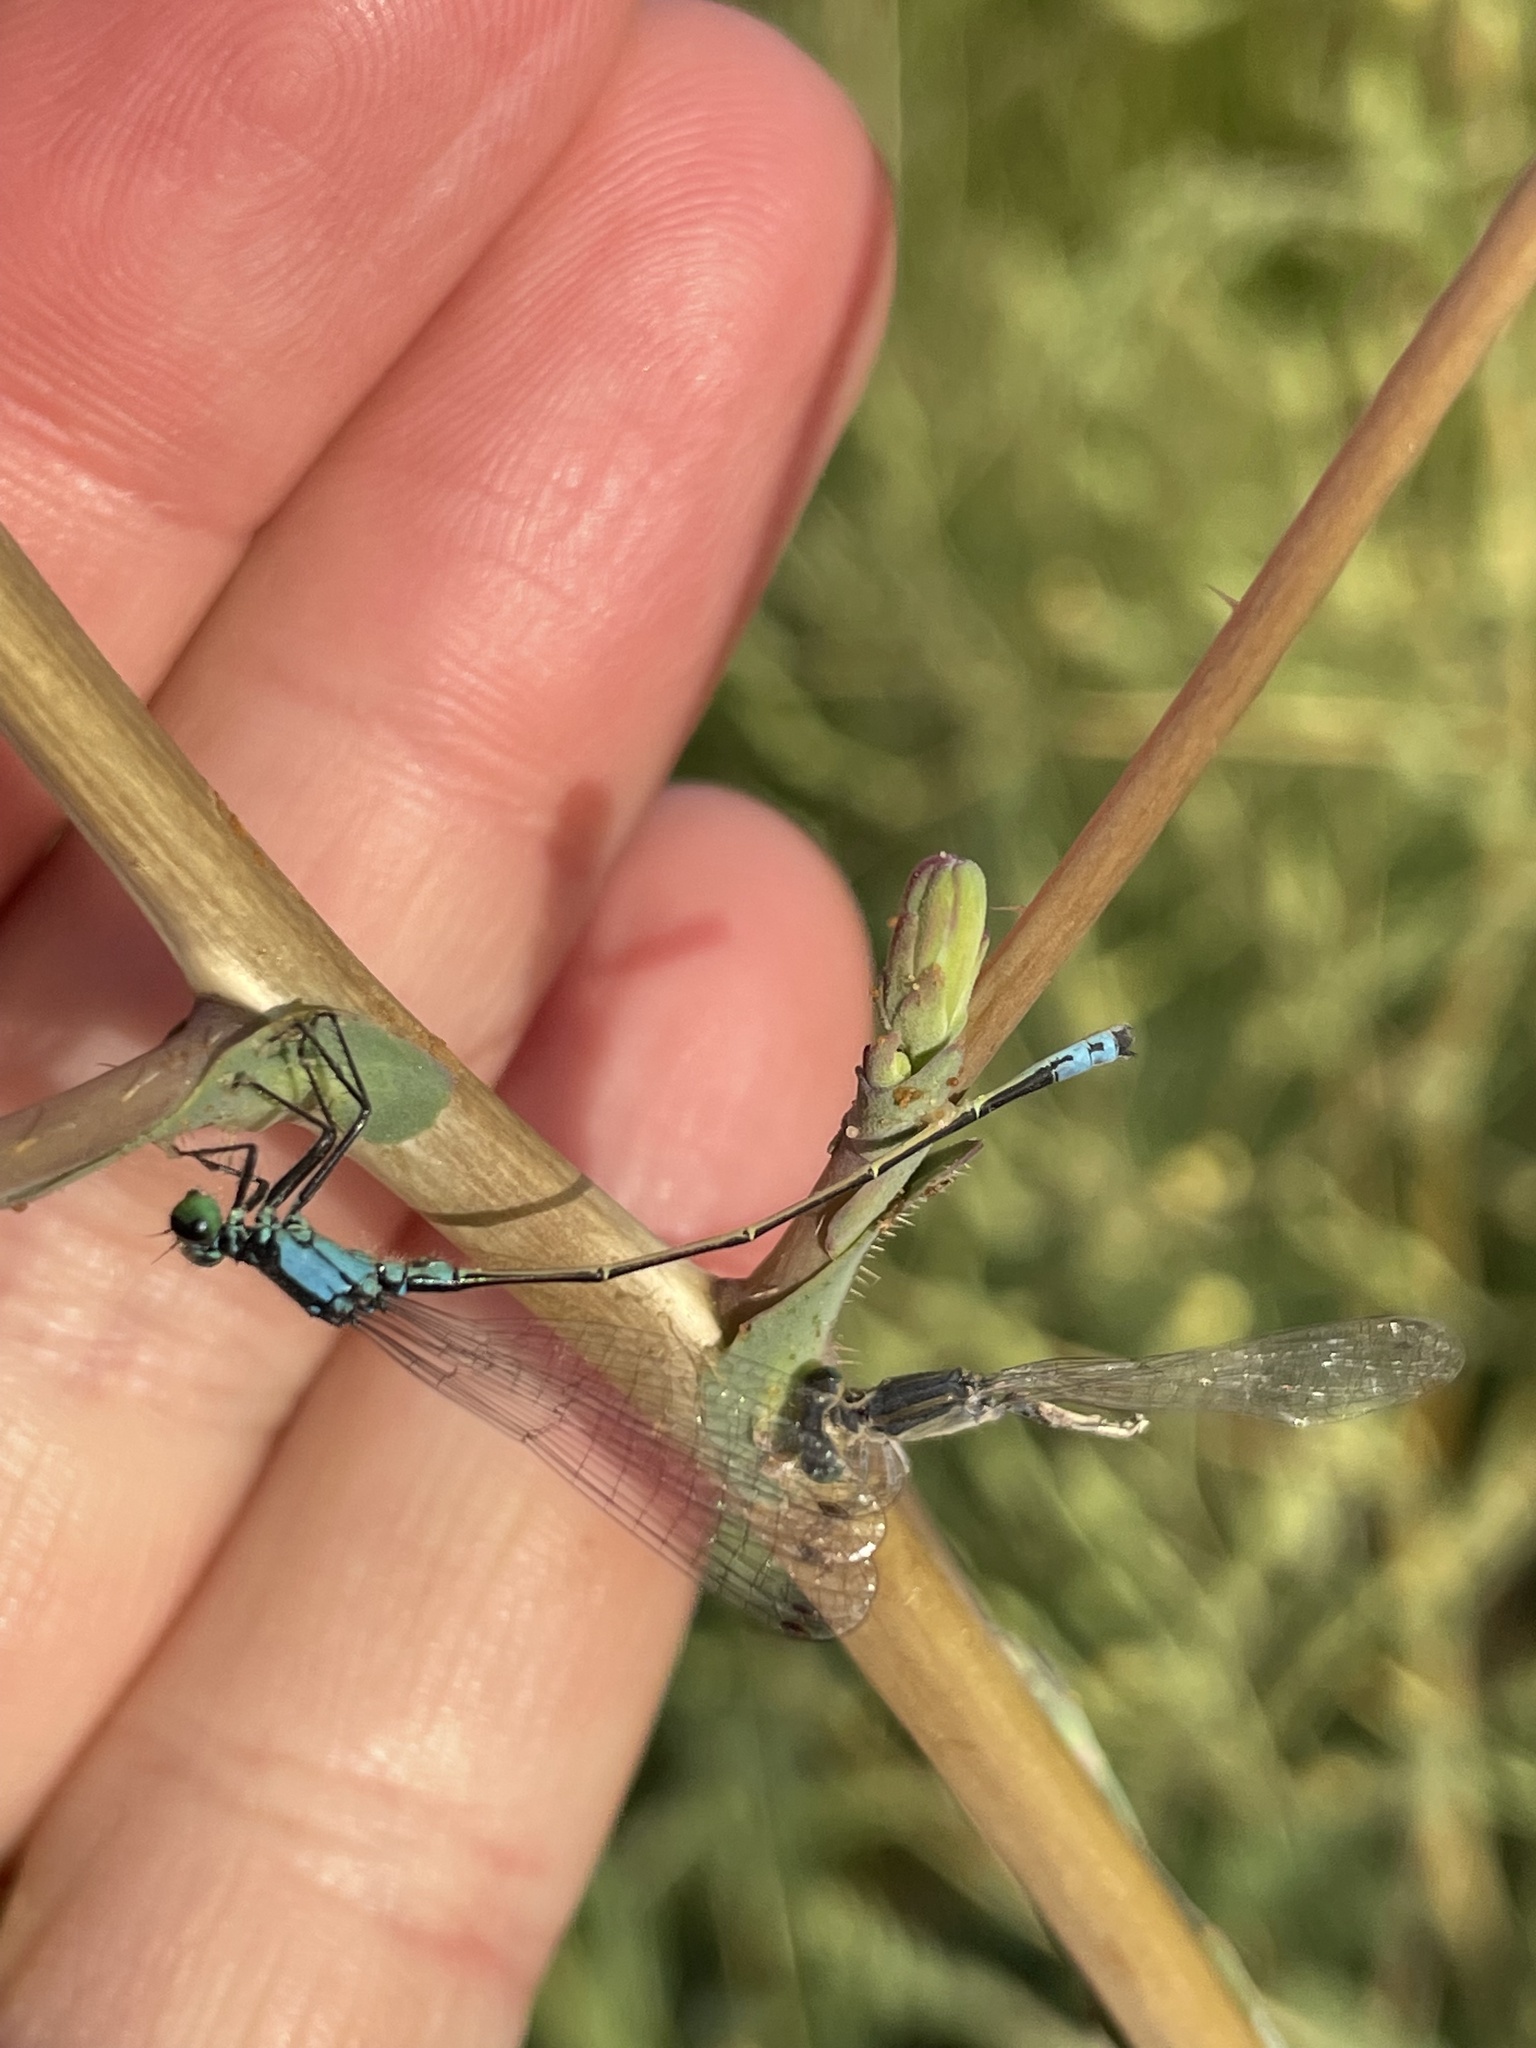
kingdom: Animalia
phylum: Arthropoda
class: Insecta
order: Odonata
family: Coenagrionidae
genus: Ischnura
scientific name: Ischnura cervula
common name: Pacific forktail
